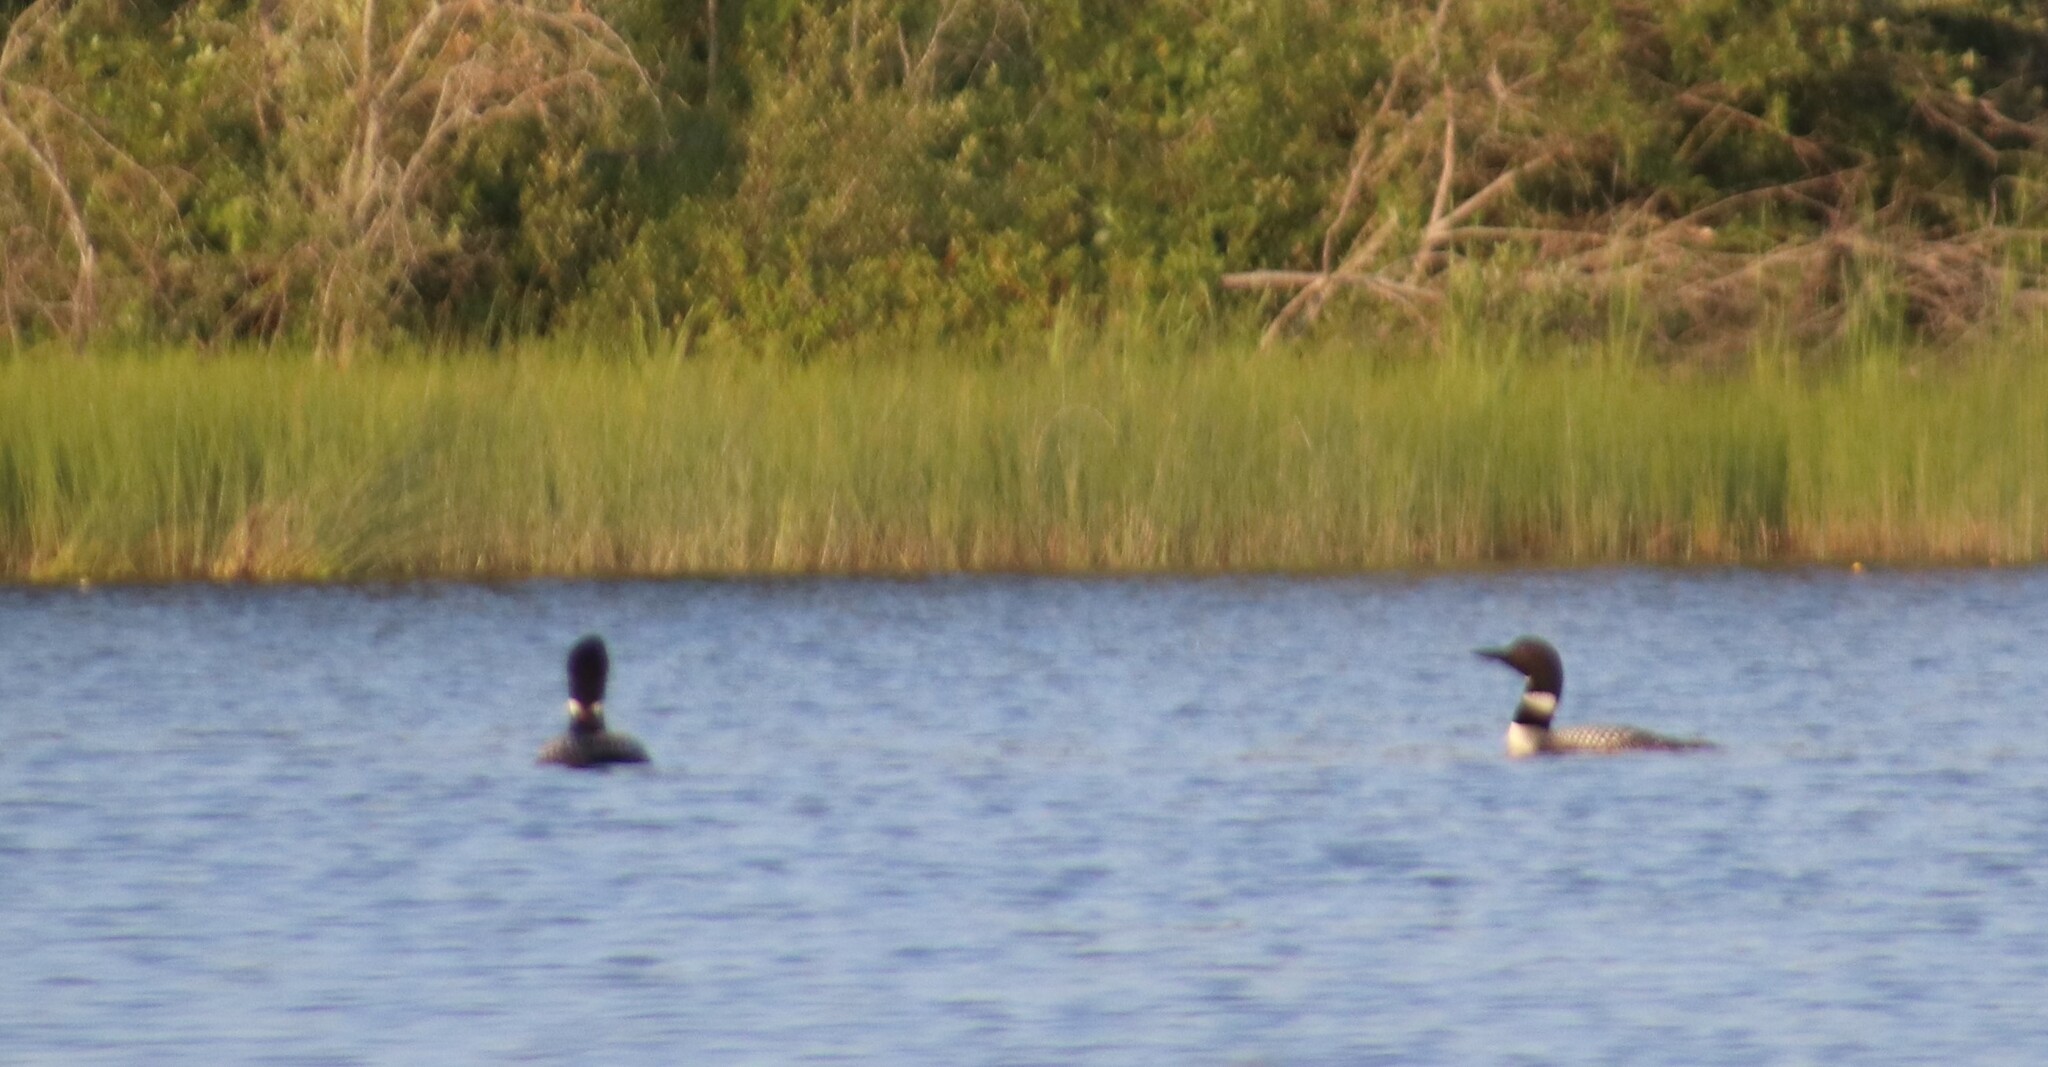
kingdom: Animalia
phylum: Chordata
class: Aves
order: Gaviiformes
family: Gaviidae
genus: Gavia
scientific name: Gavia immer
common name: Common loon
